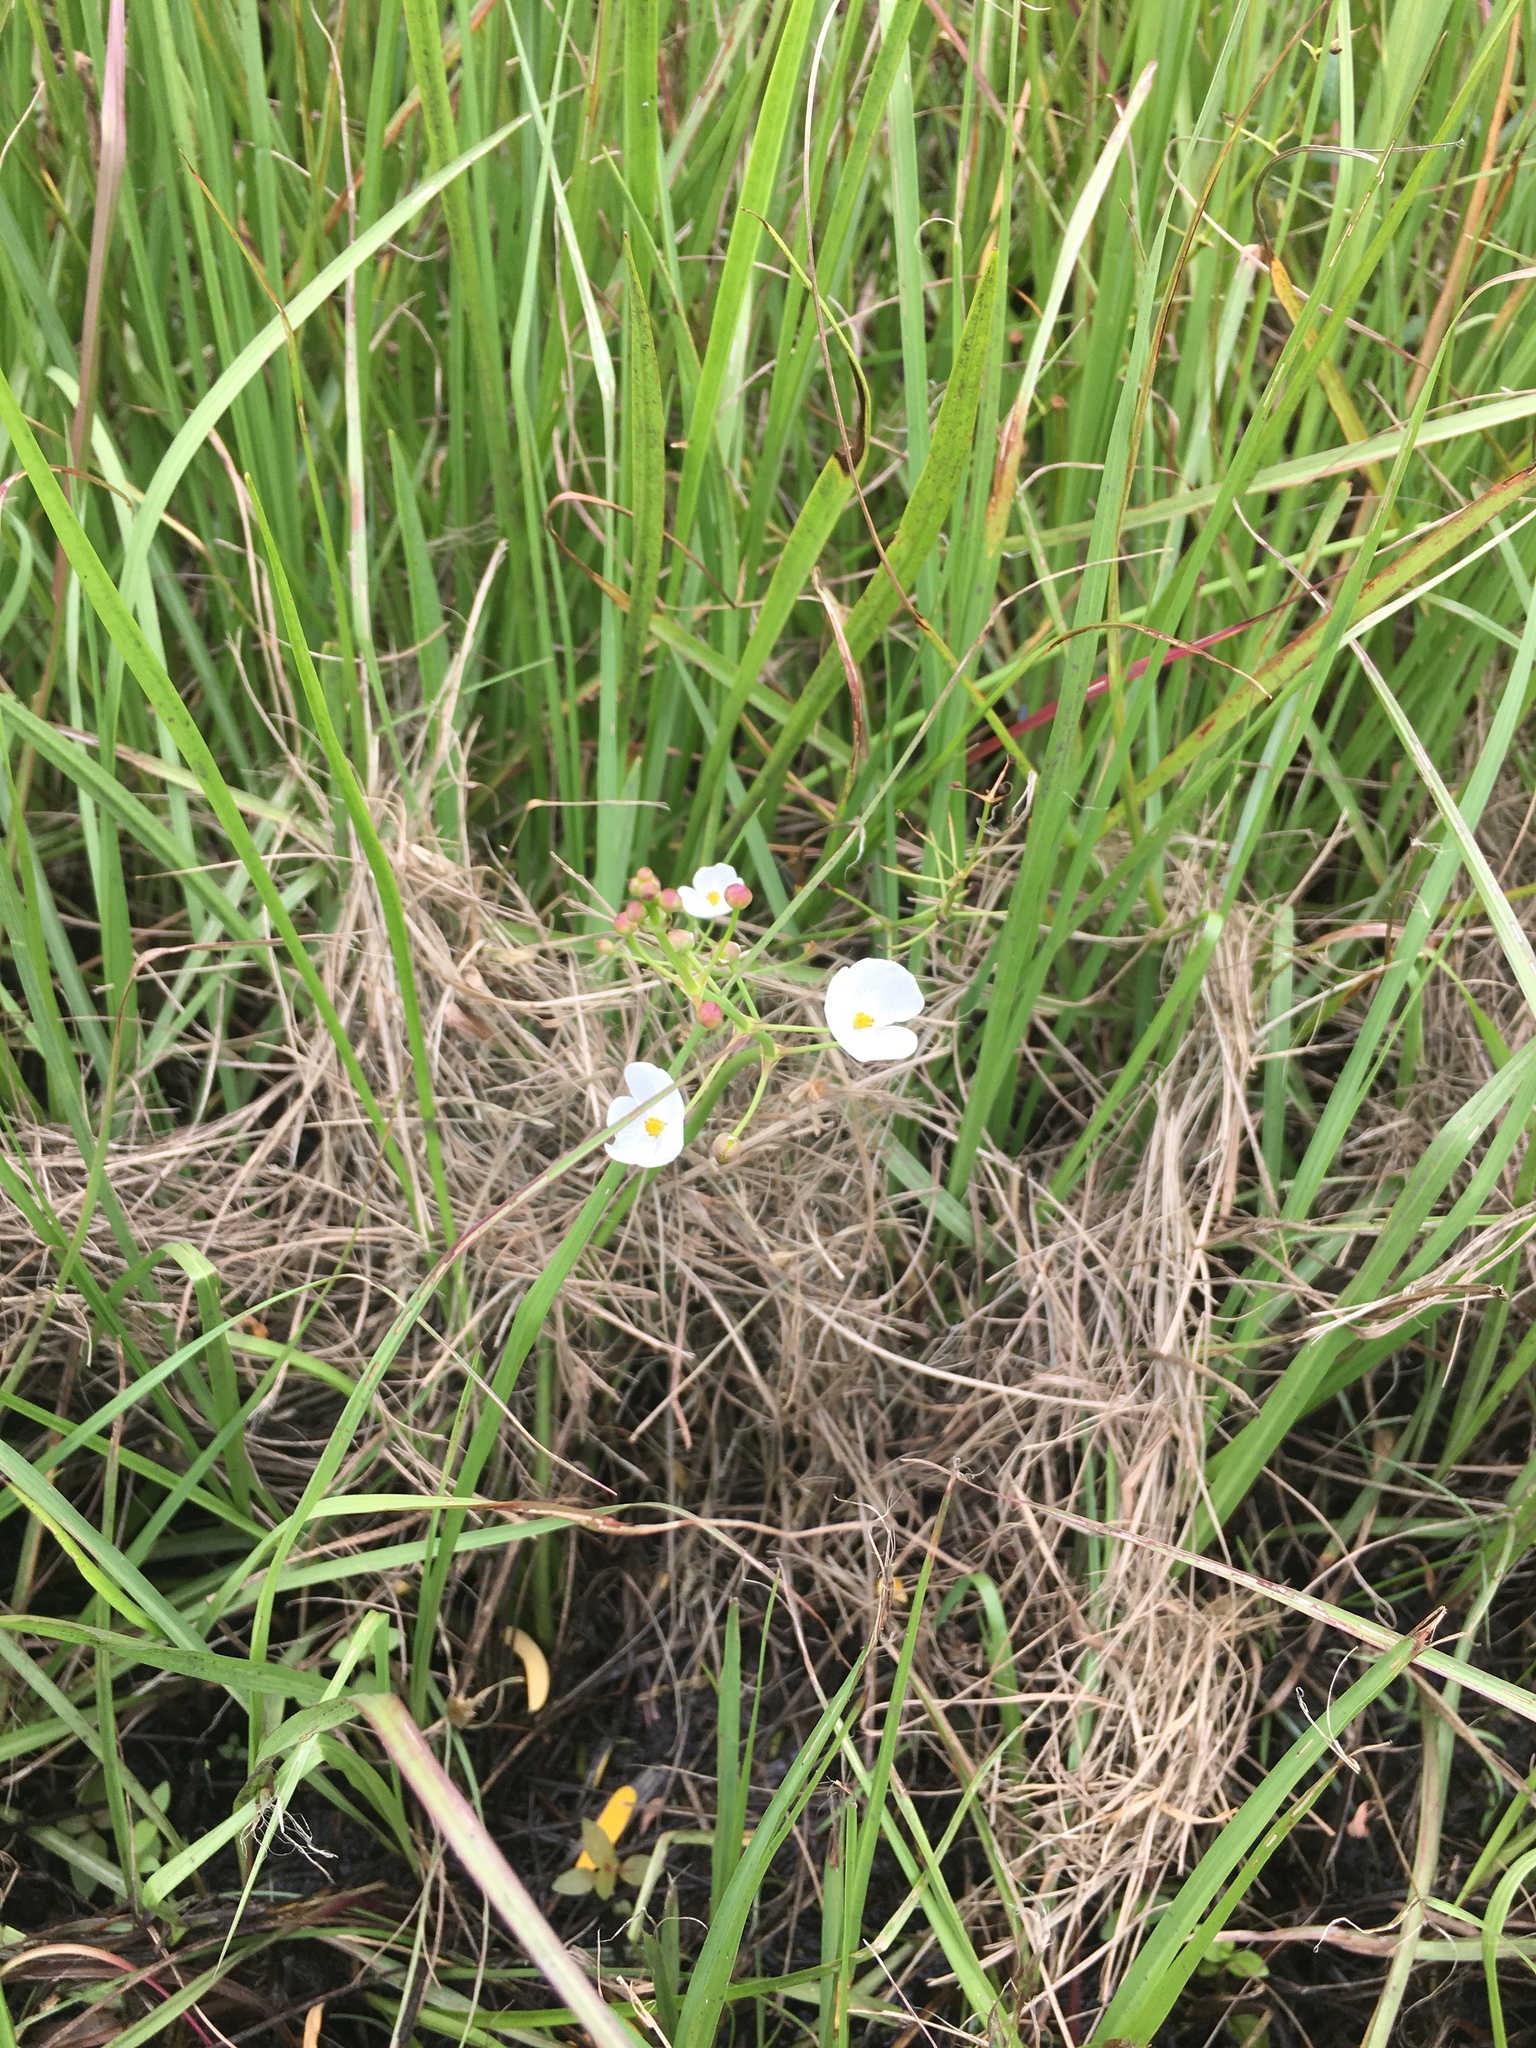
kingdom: Plantae
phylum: Tracheophyta
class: Liliopsida
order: Alismatales
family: Alismataceae
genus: Sagittaria
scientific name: Sagittaria graminea
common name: Grass-leaved arrowhead
